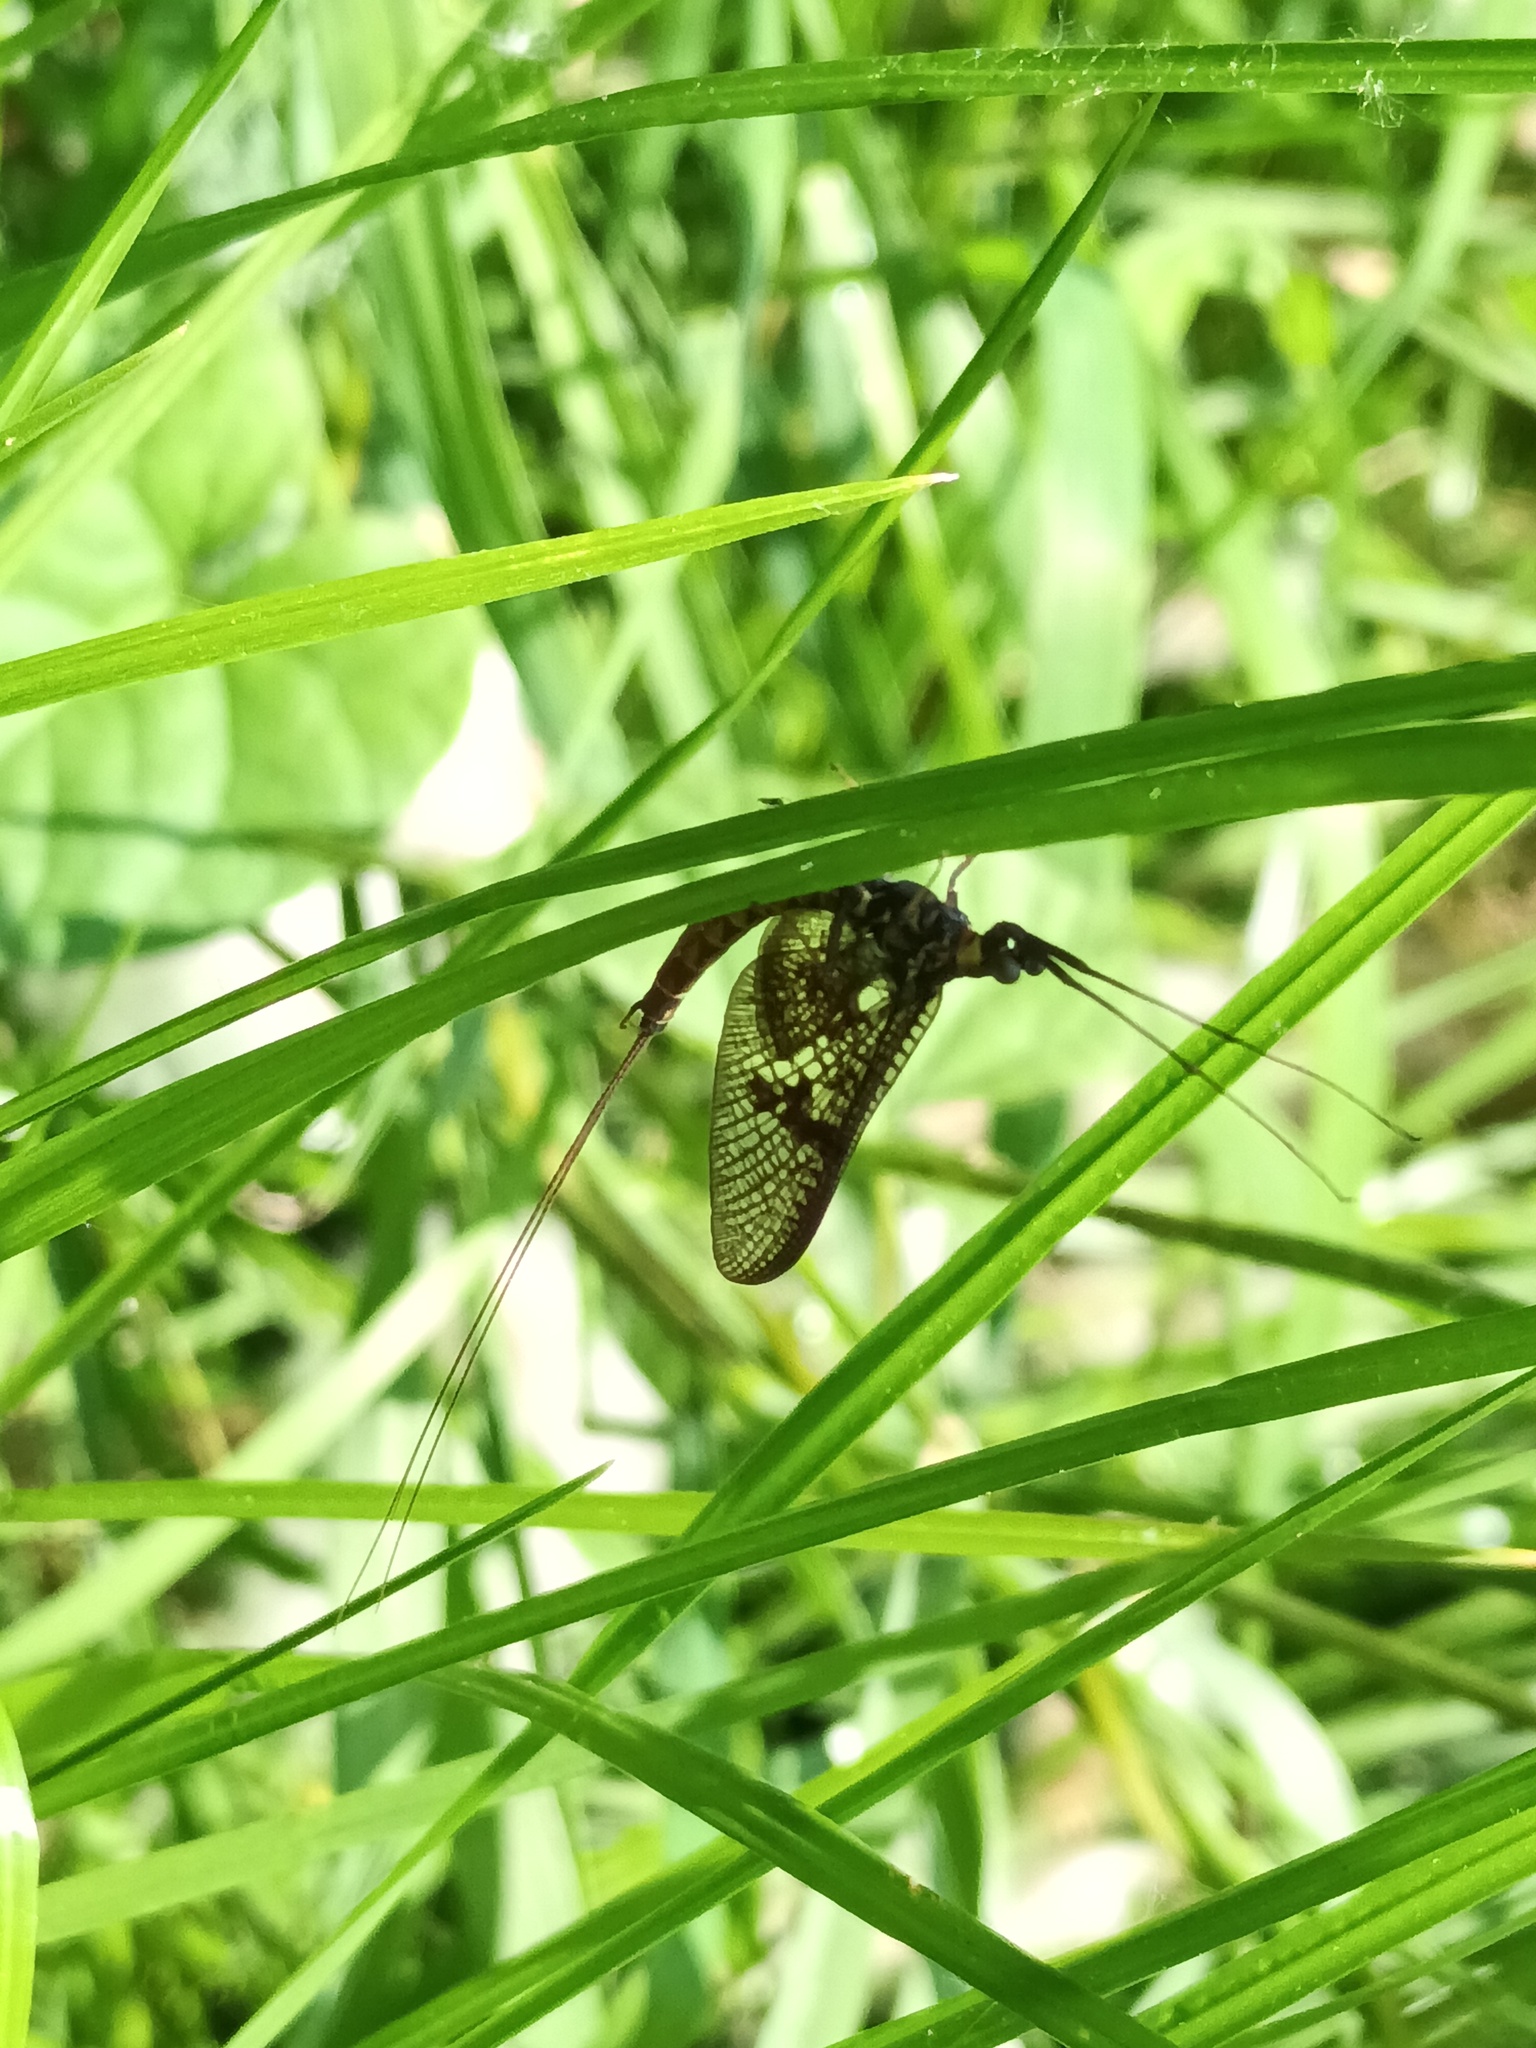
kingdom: Animalia
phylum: Arthropoda
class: Insecta
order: Ephemeroptera
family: Ephemeridae
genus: Ephemera
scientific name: Ephemera vulgata
